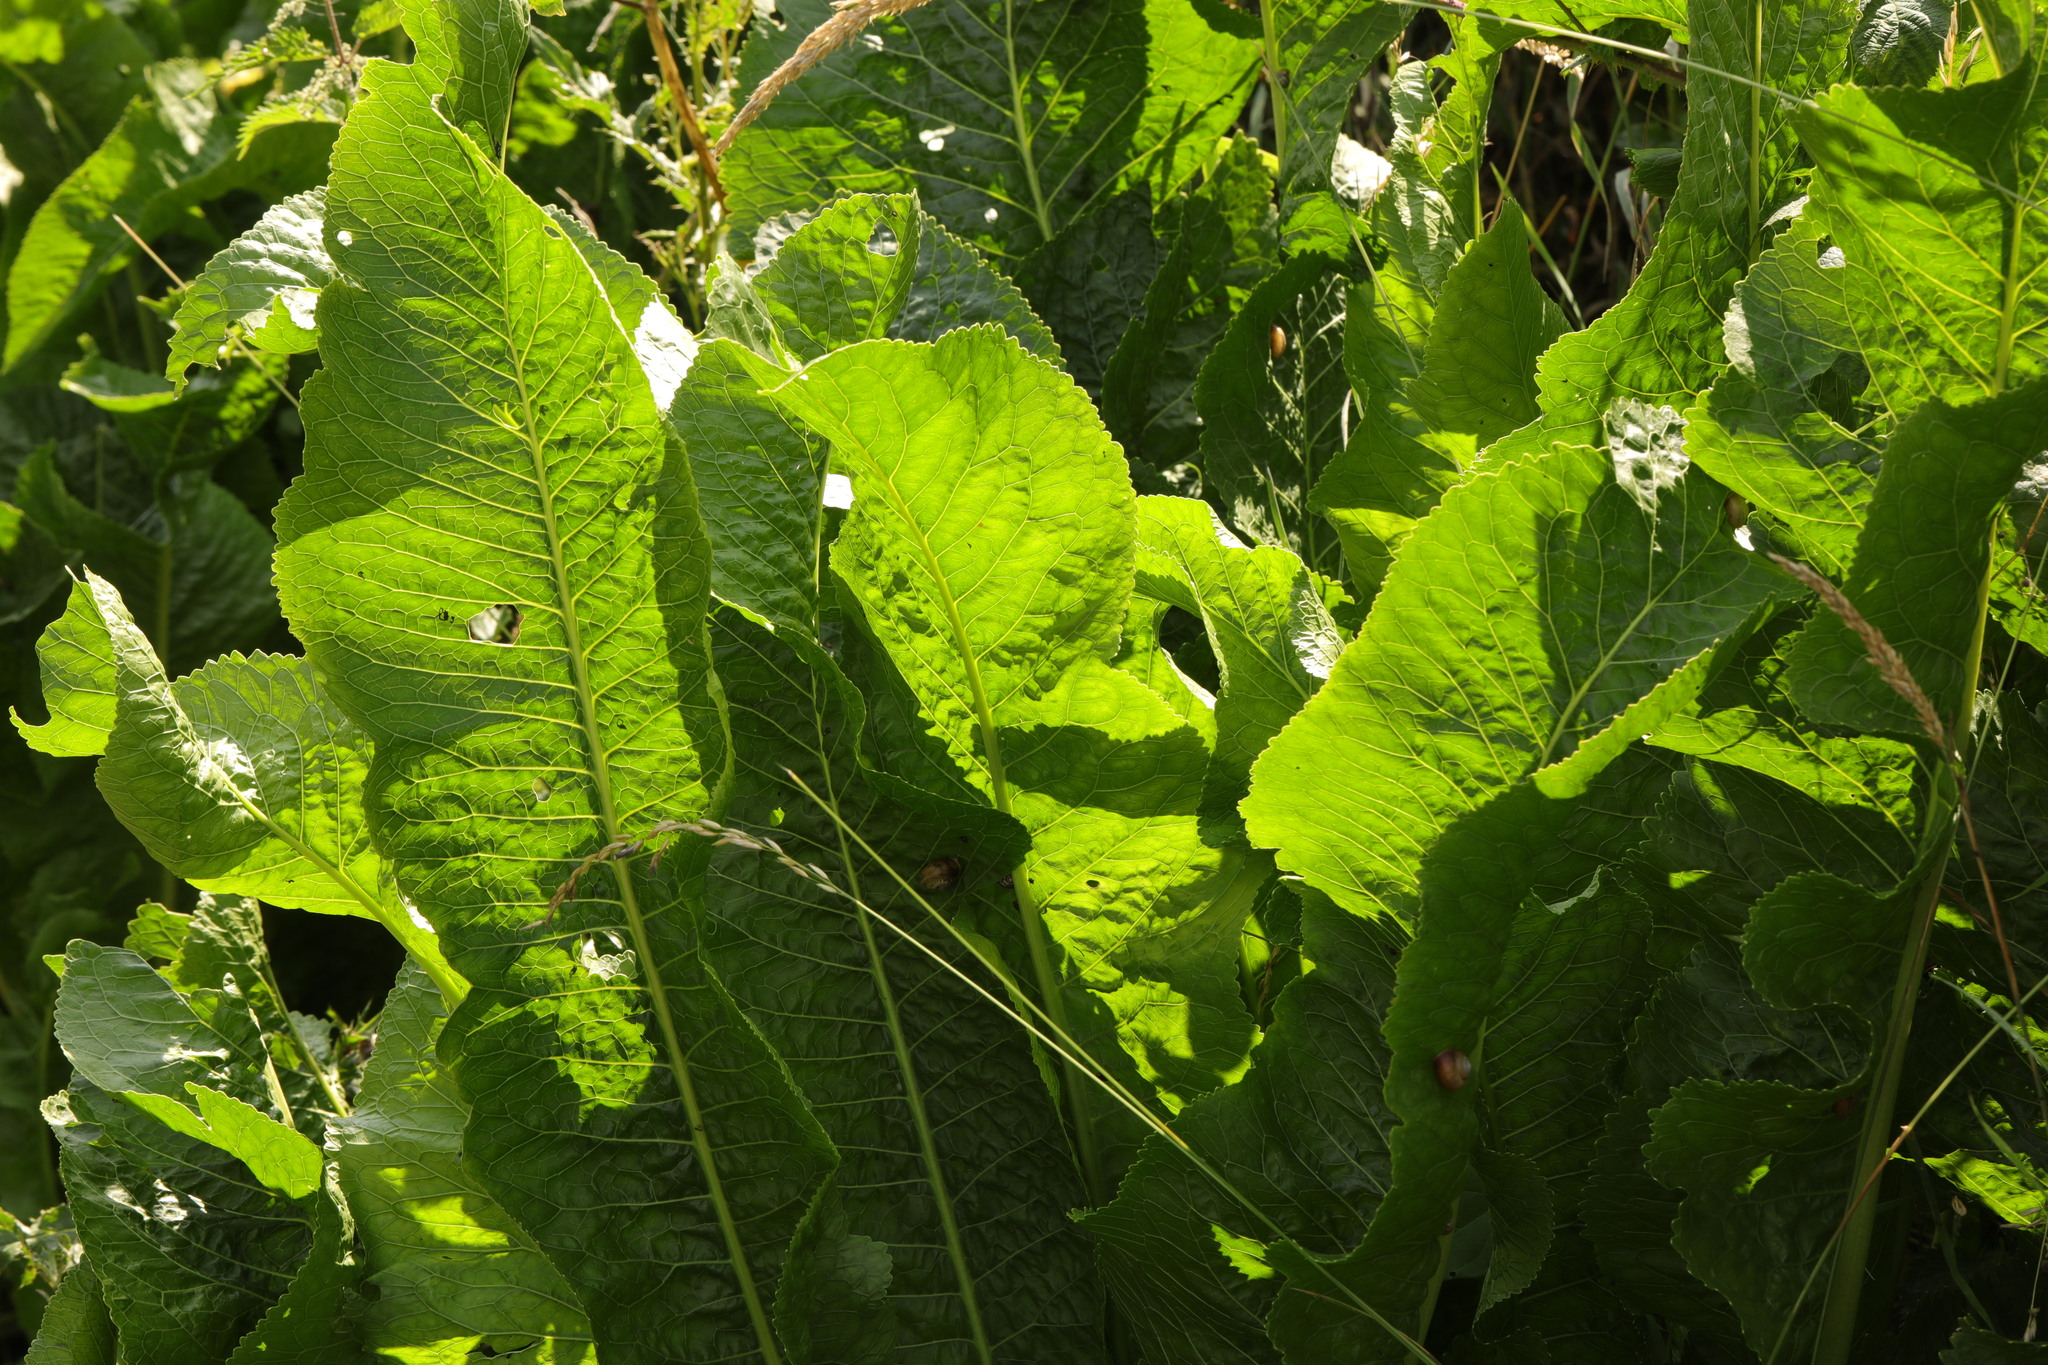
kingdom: Plantae
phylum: Tracheophyta
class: Magnoliopsida
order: Brassicales
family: Brassicaceae
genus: Armoracia
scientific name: Armoracia rusticana
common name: Horseradish
